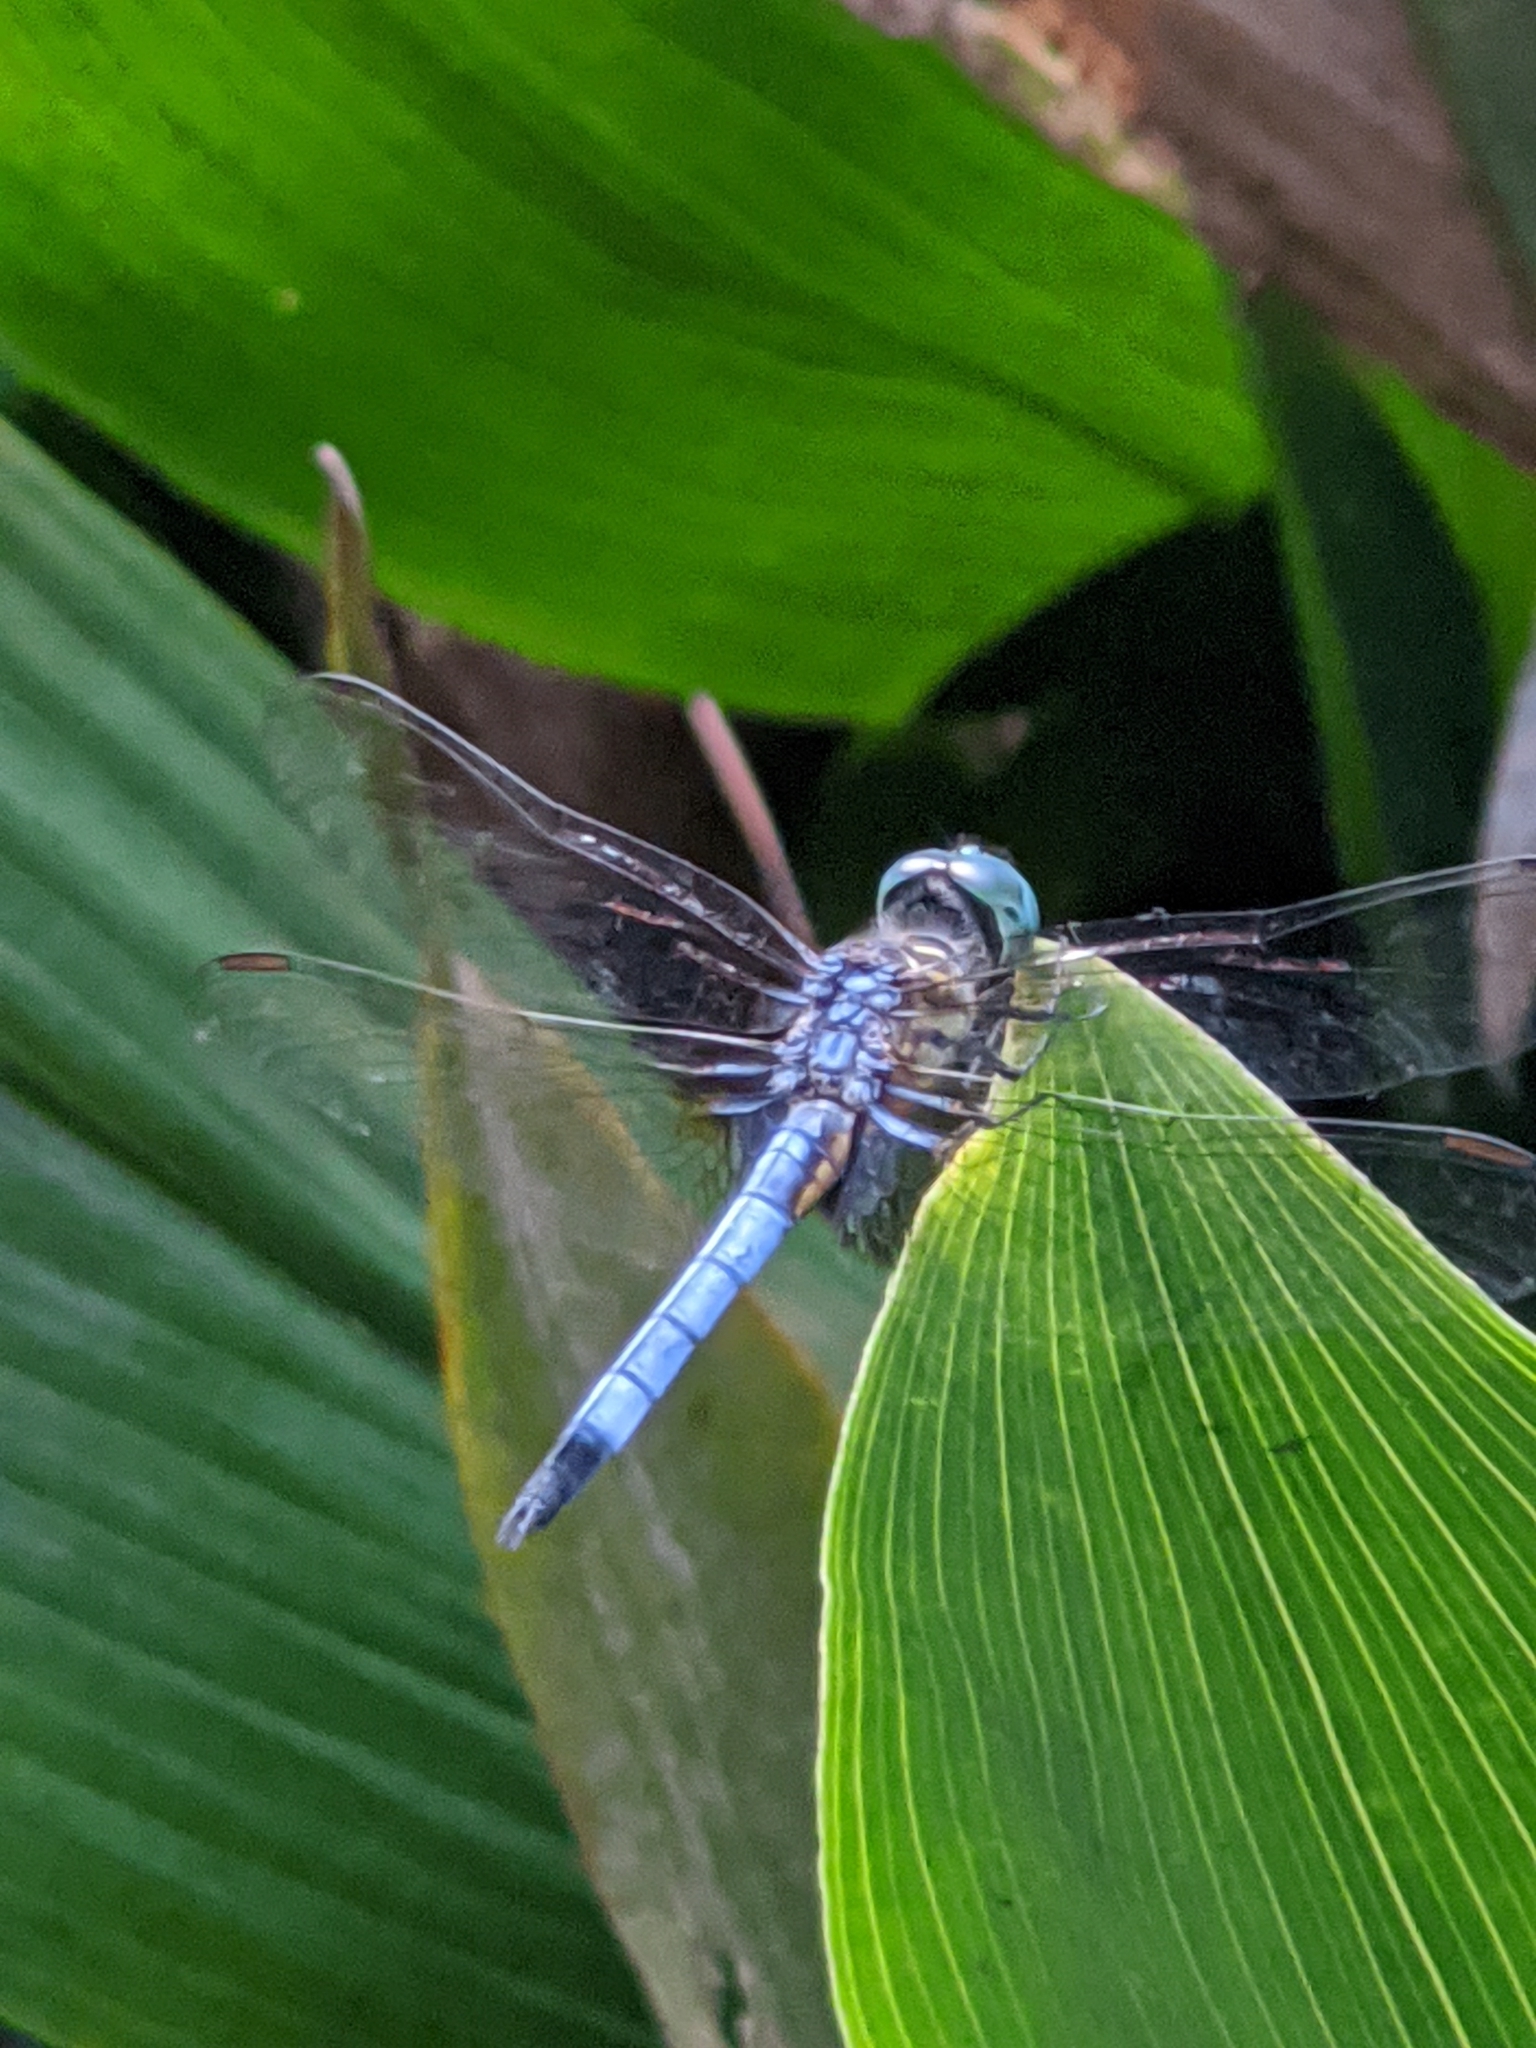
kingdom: Animalia
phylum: Arthropoda
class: Insecta
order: Odonata
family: Libellulidae
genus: Pachydiplax
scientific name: Pachydiplax longipennis
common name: Blue dasher
